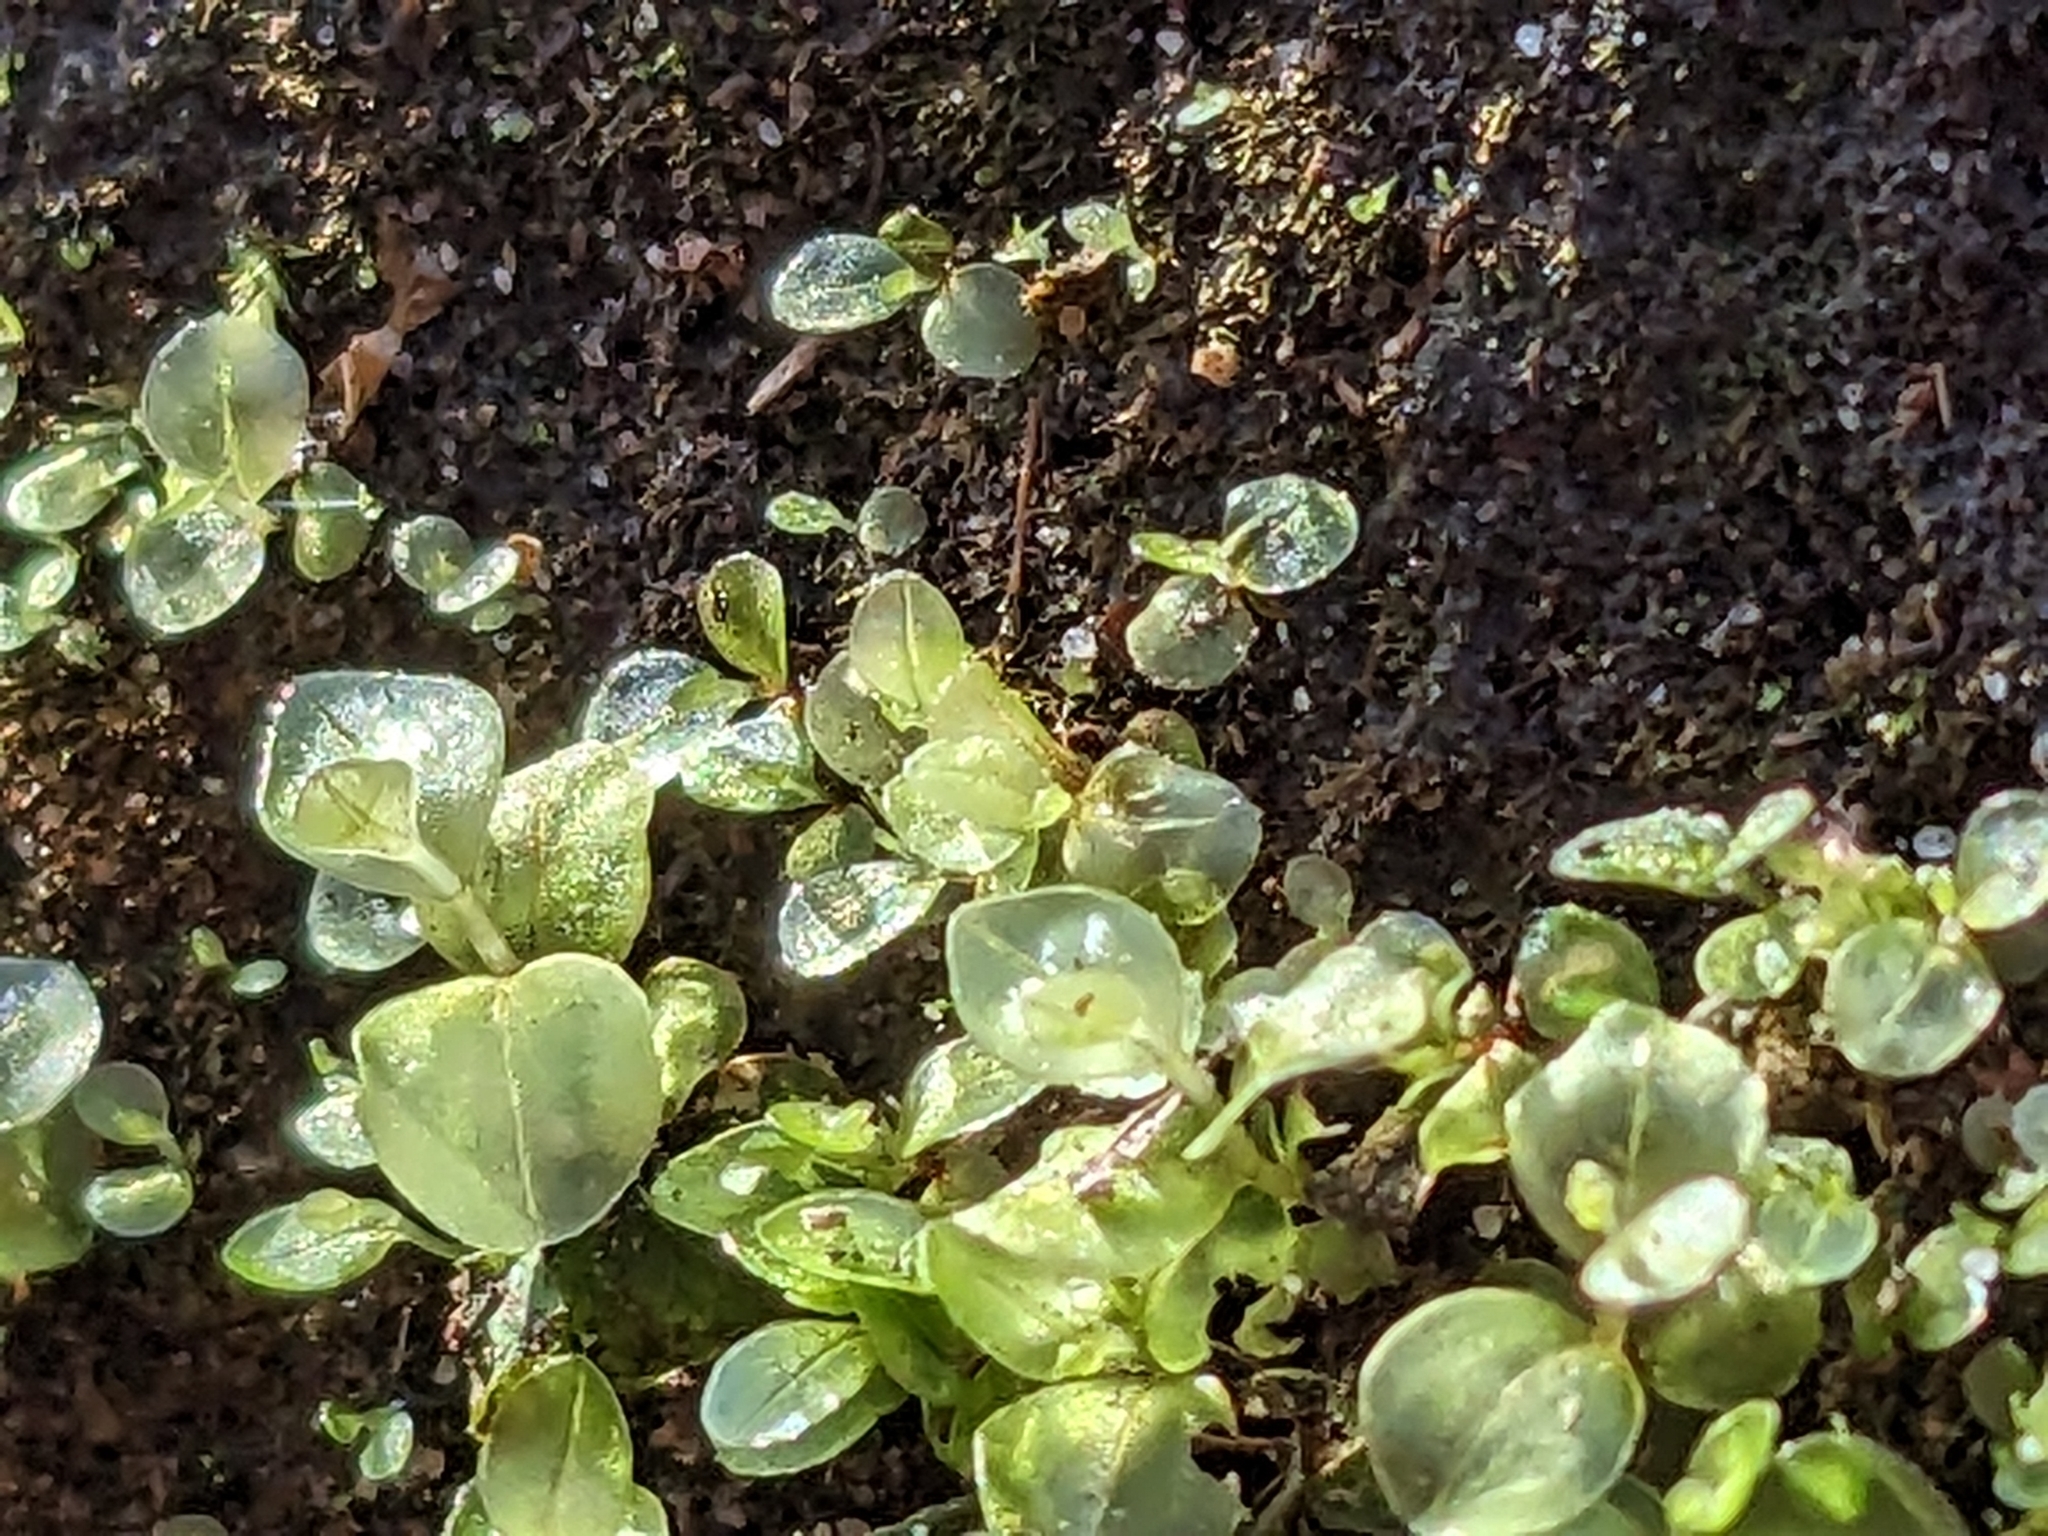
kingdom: Plantae
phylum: Bryophyta
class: Bryopsida
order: Bryales
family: Mniaceae
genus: Rhizomnium
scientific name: Rhizomnium punctatum
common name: Dotted leafy moss
